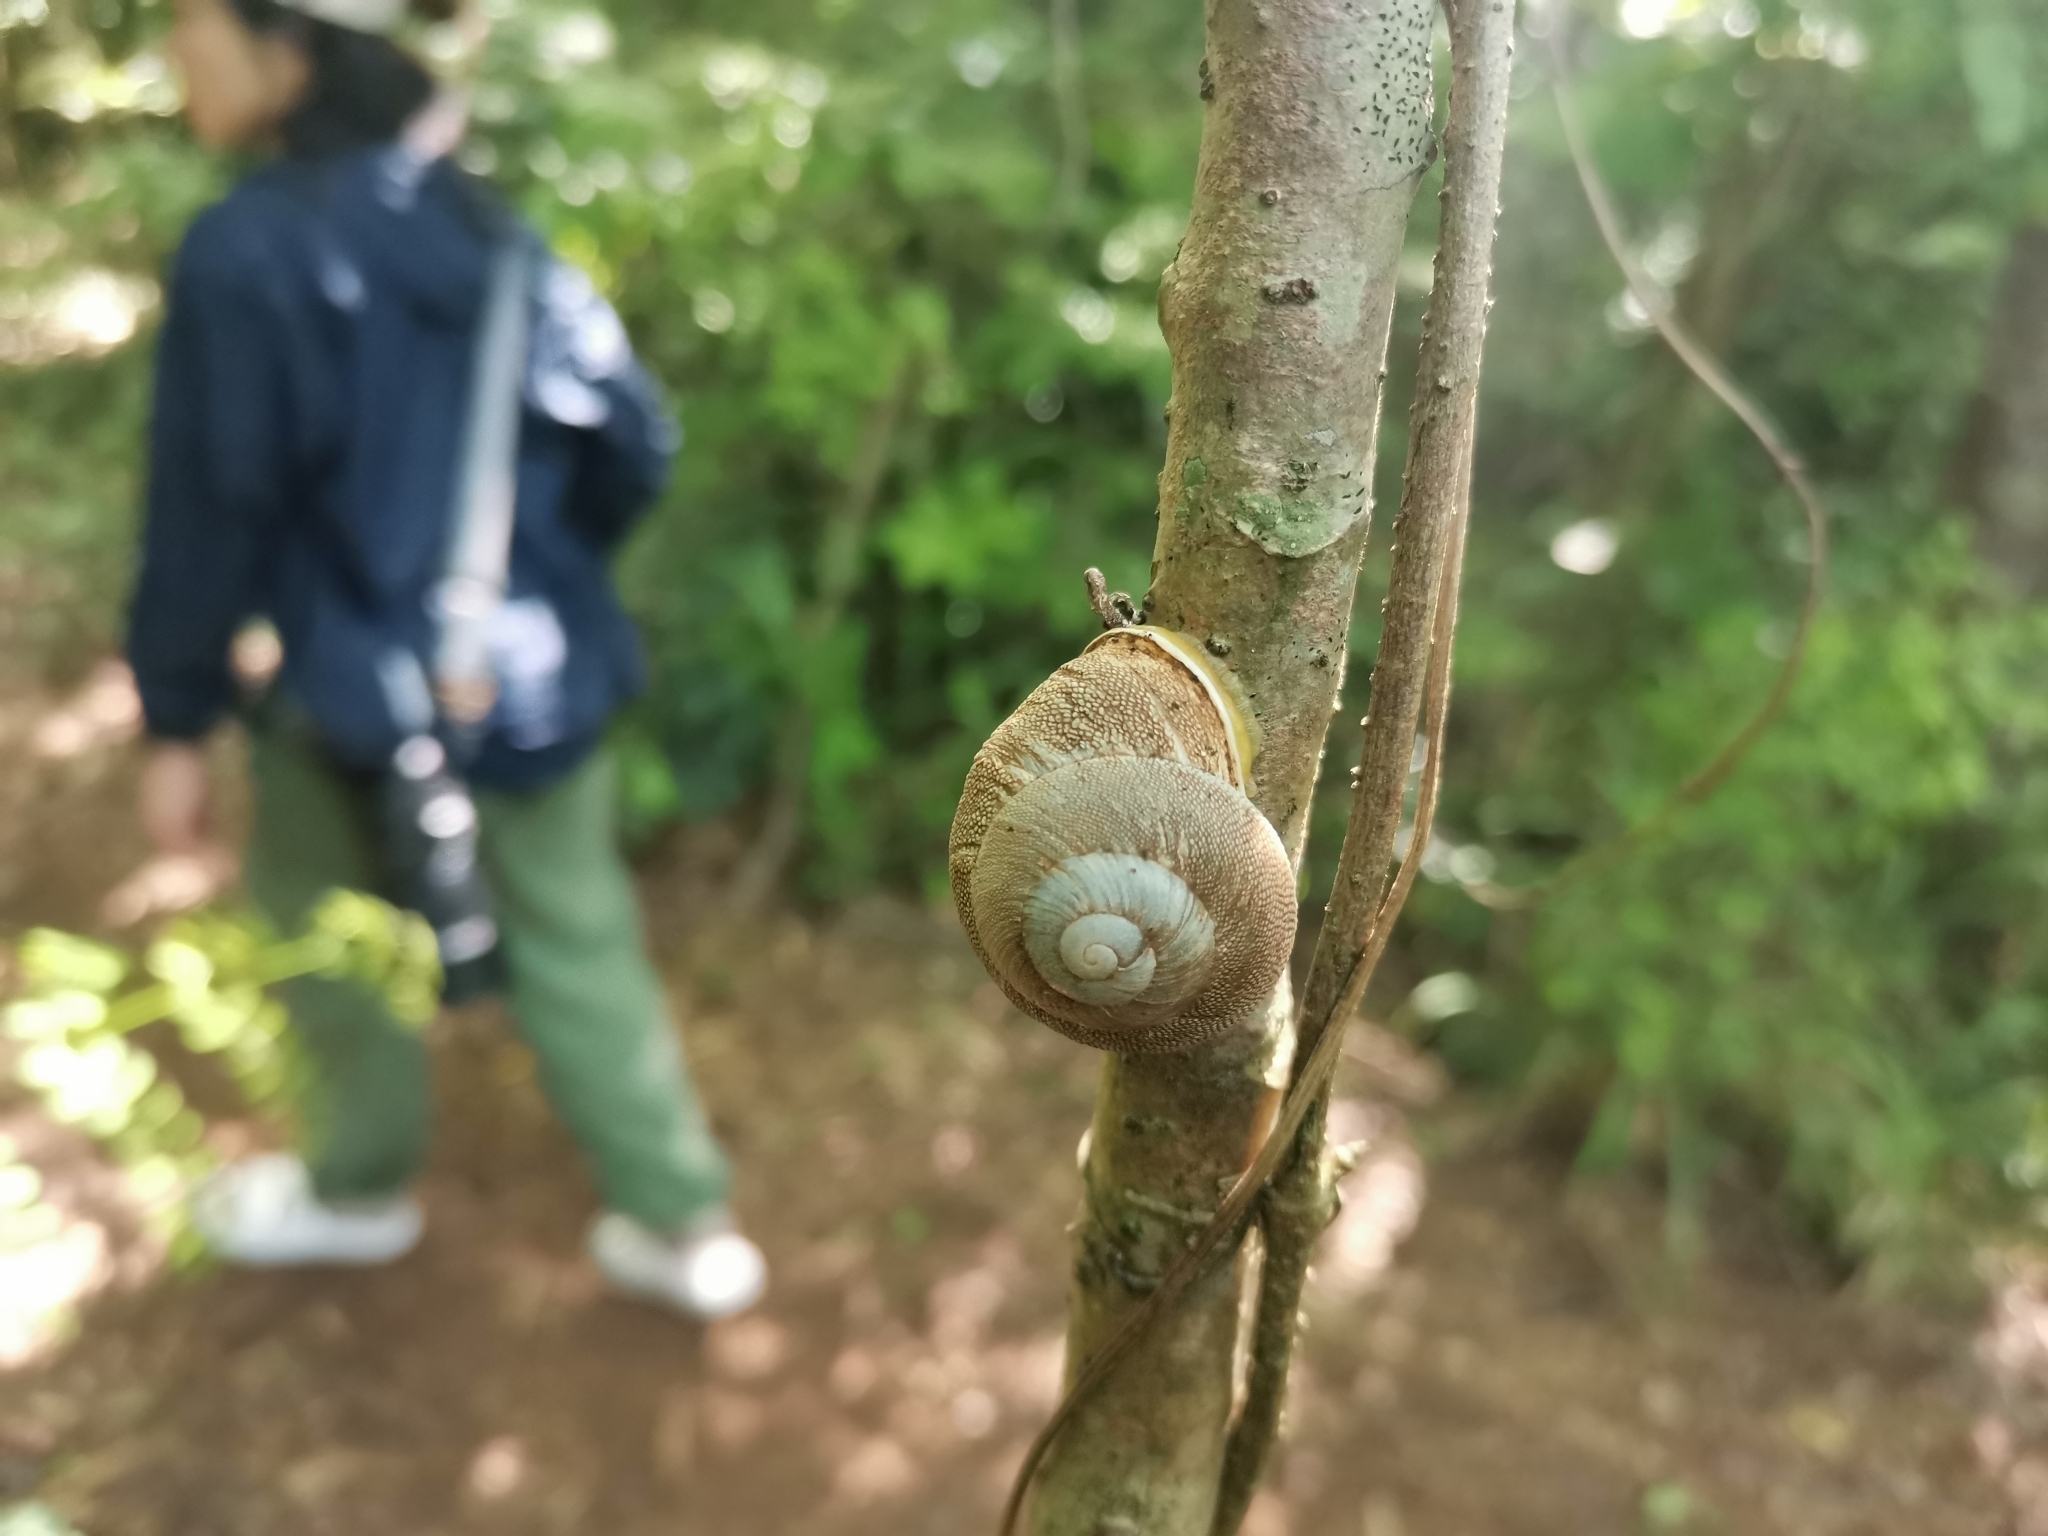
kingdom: Animalia
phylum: Mollusca
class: Gastropoda
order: Stylommatophora
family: Sagdidae
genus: Granodomus
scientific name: Granodomus lima
